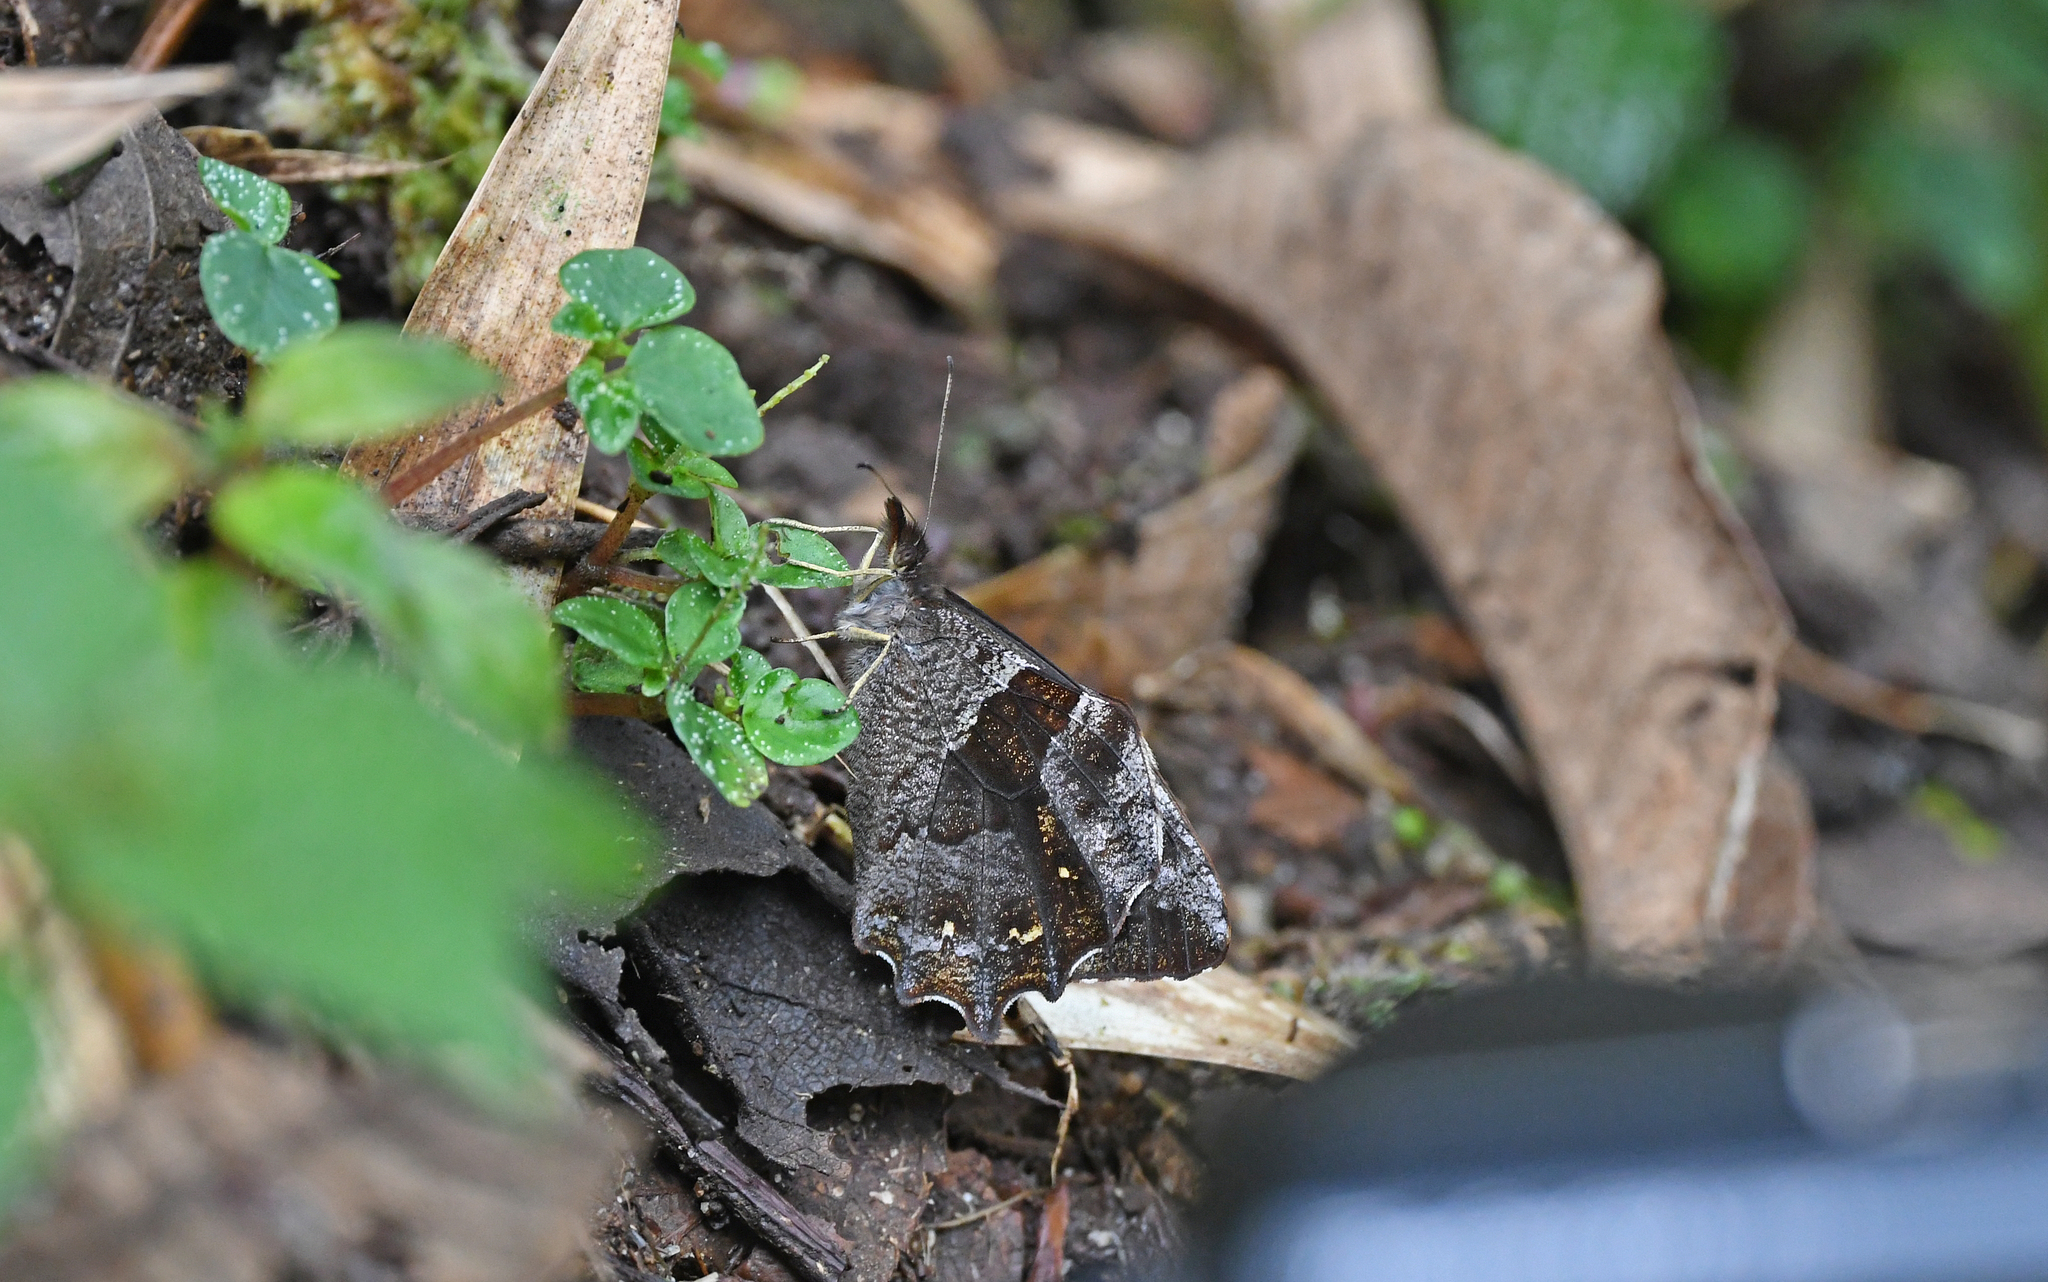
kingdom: Animalia
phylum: Arthropoda
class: Insecta
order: Lepidoptera
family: Nymphalidae
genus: Lasiophila
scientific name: Lasiophila prosymna
